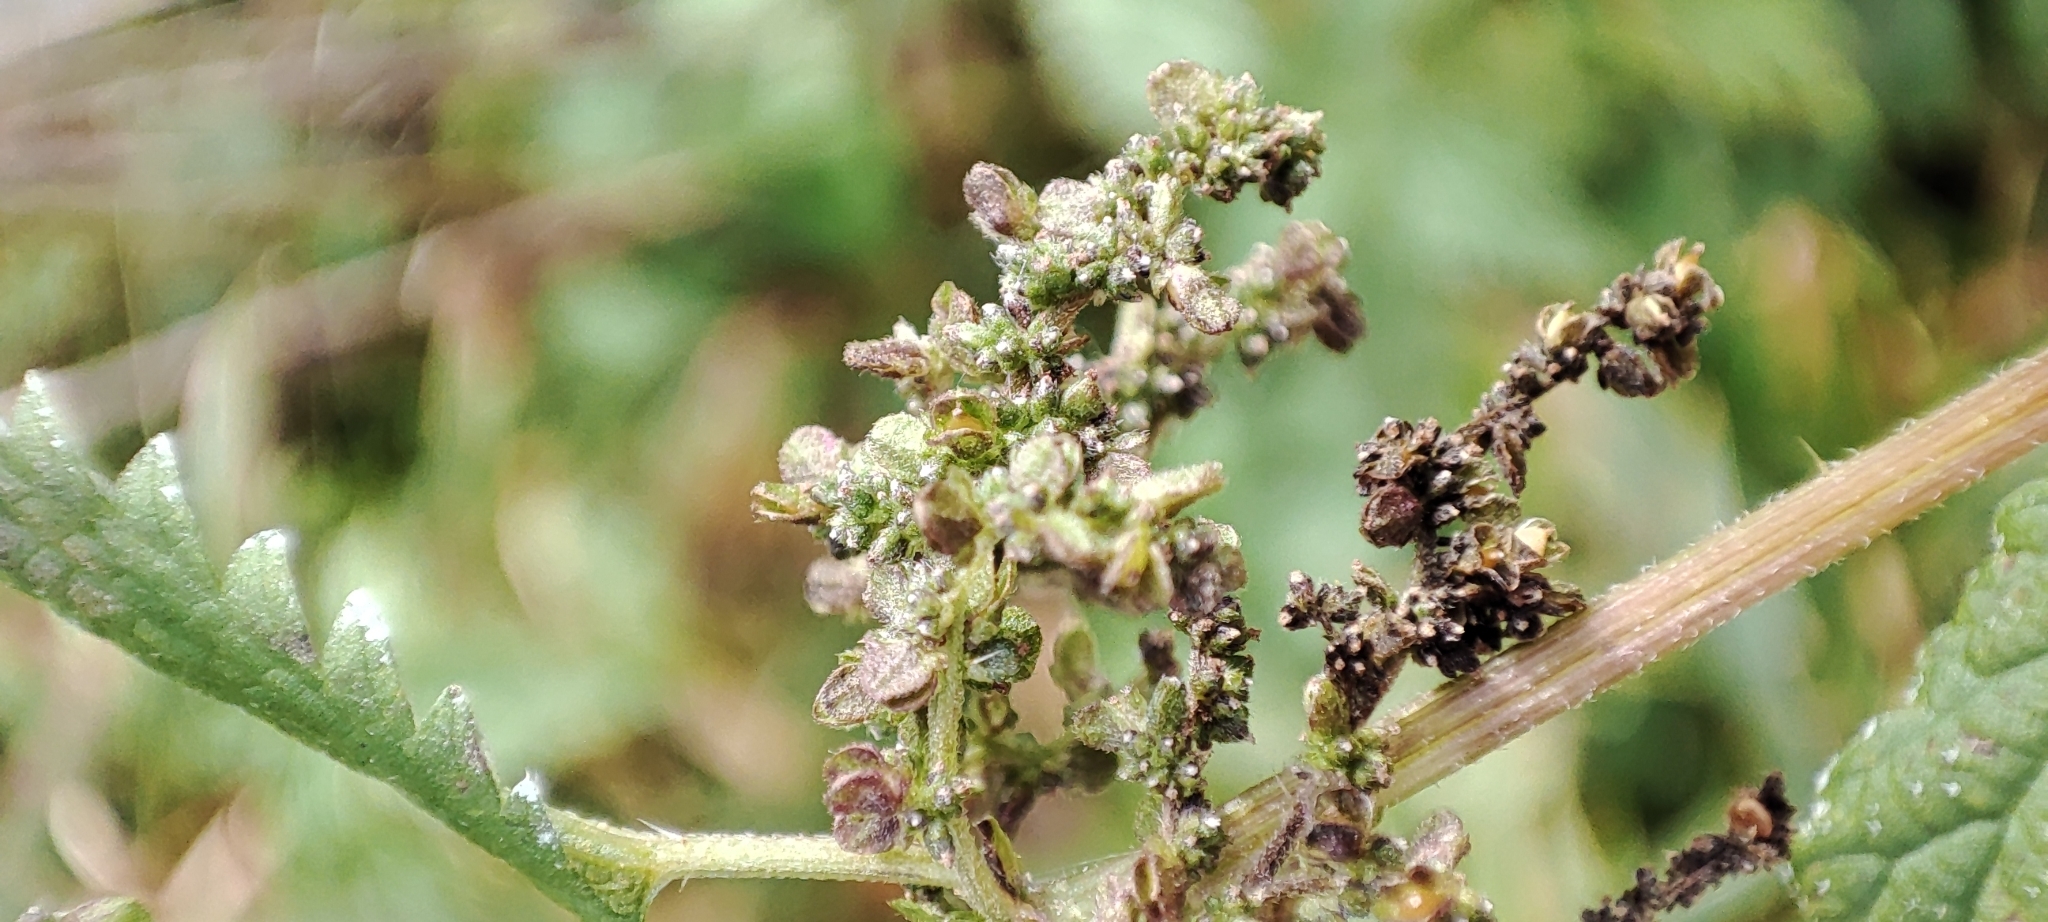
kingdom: Plantae
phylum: Tracheophyta
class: Magnoliopsida
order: Rosales
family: Urticaceae
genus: Urtica
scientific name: Urtica dioica
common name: Common nettle
